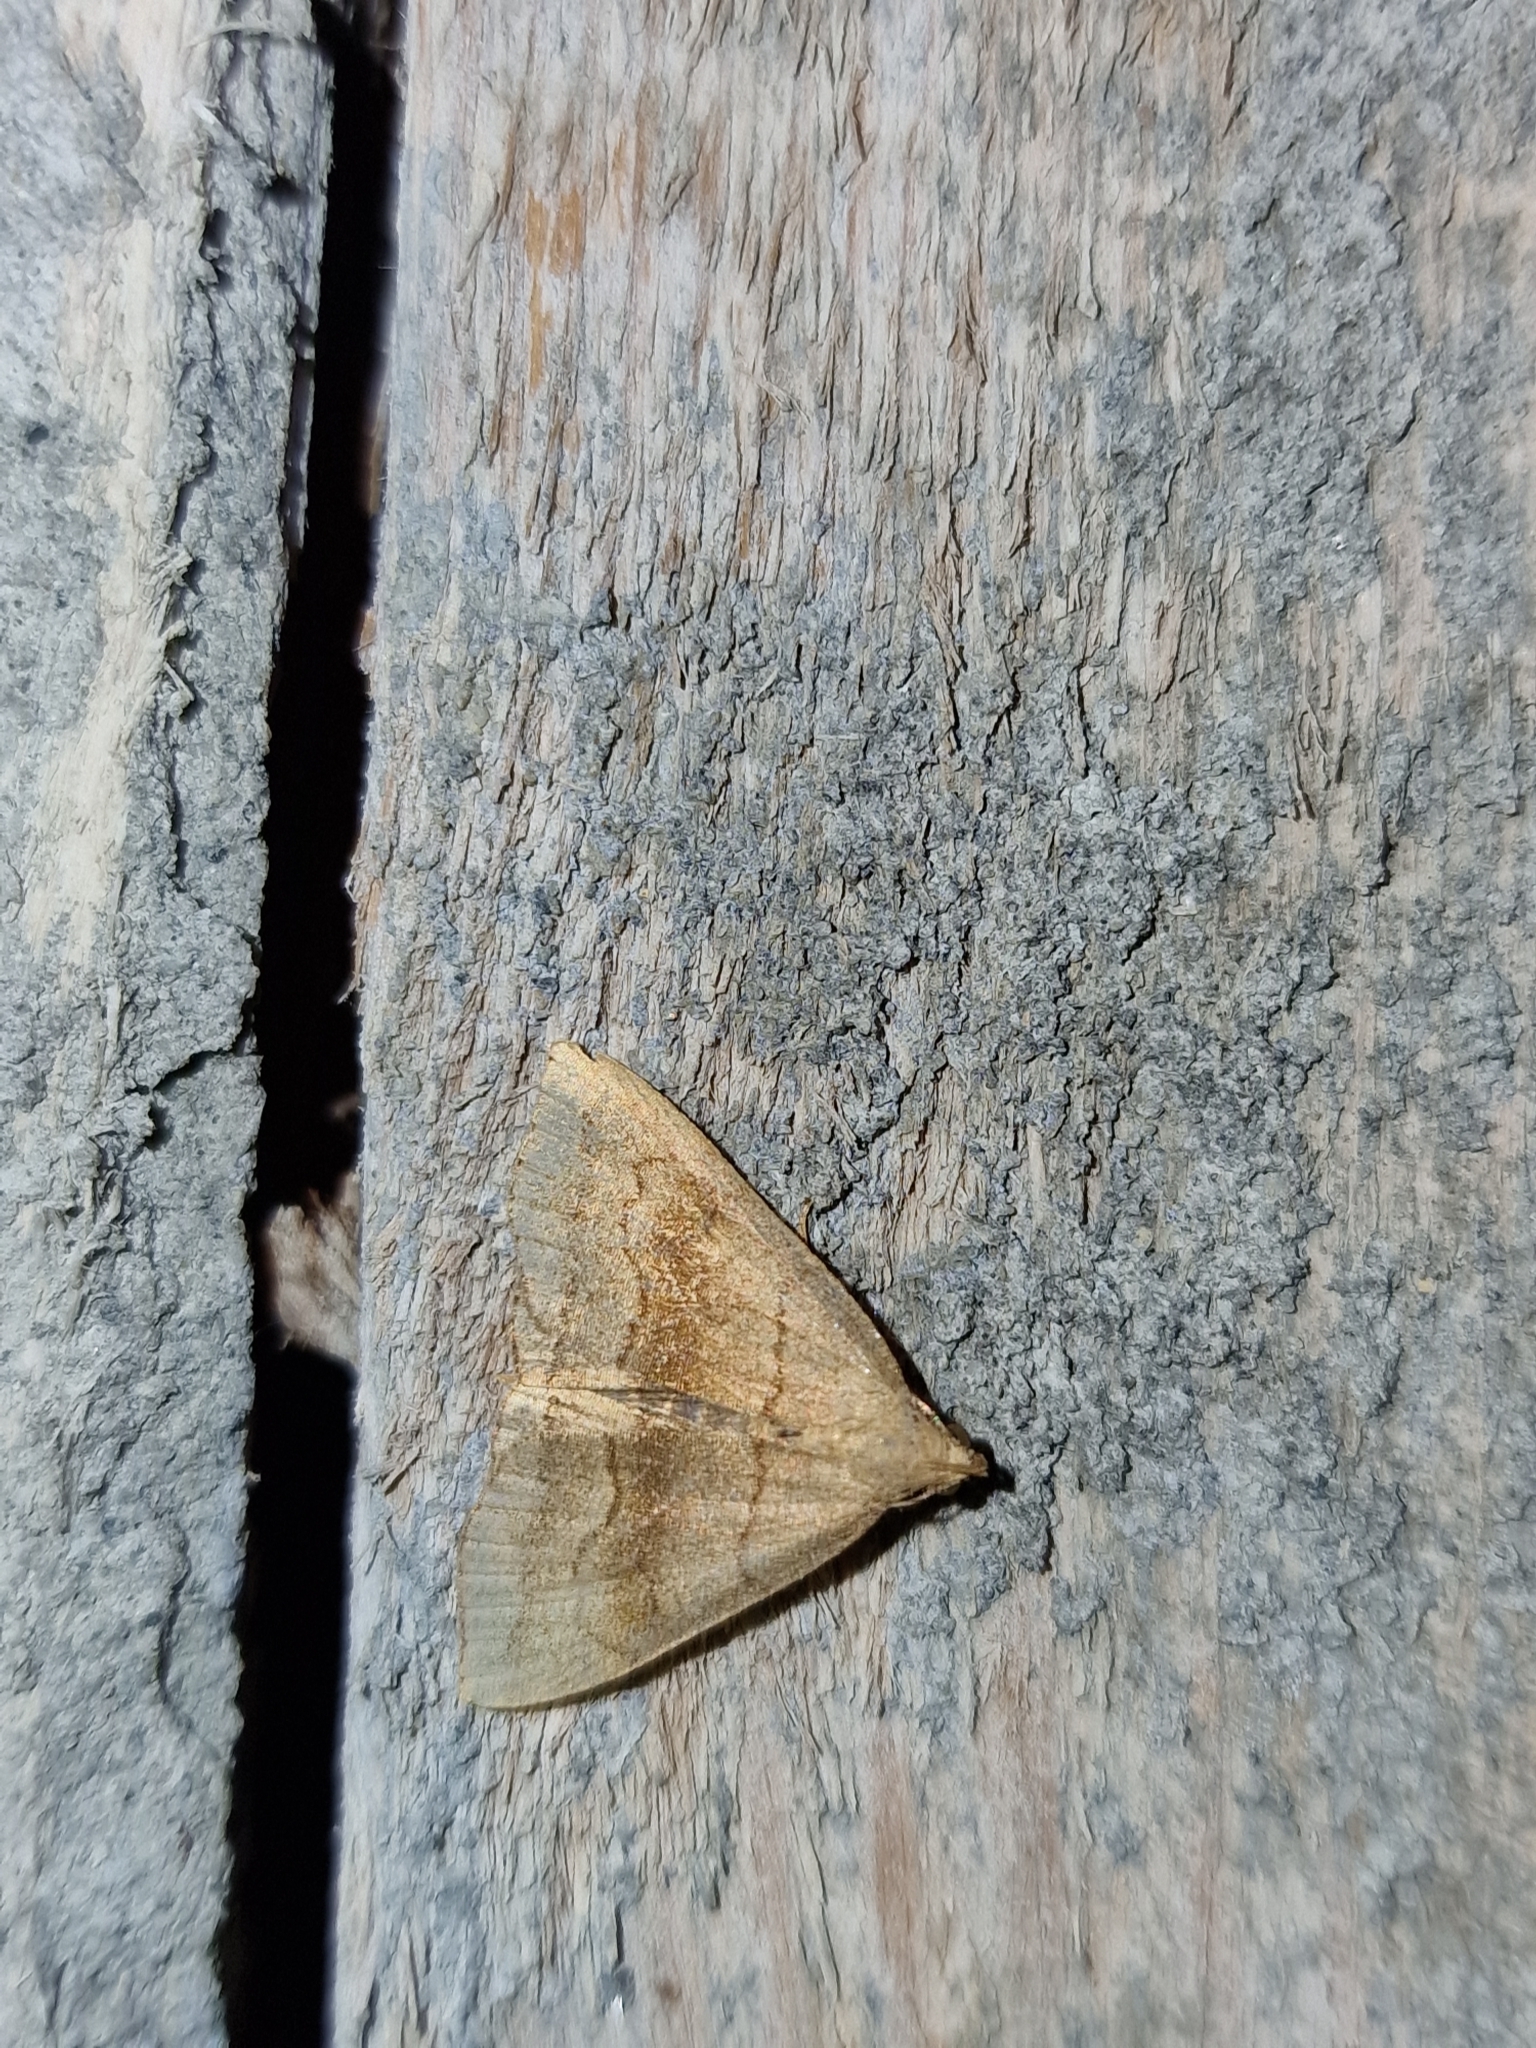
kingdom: Animalia
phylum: Arthropoda
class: Insecta
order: Lepidoptera
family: Erebidae
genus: Herminia
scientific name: Herminia tarsicrinalis
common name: Shaded fan-foot
